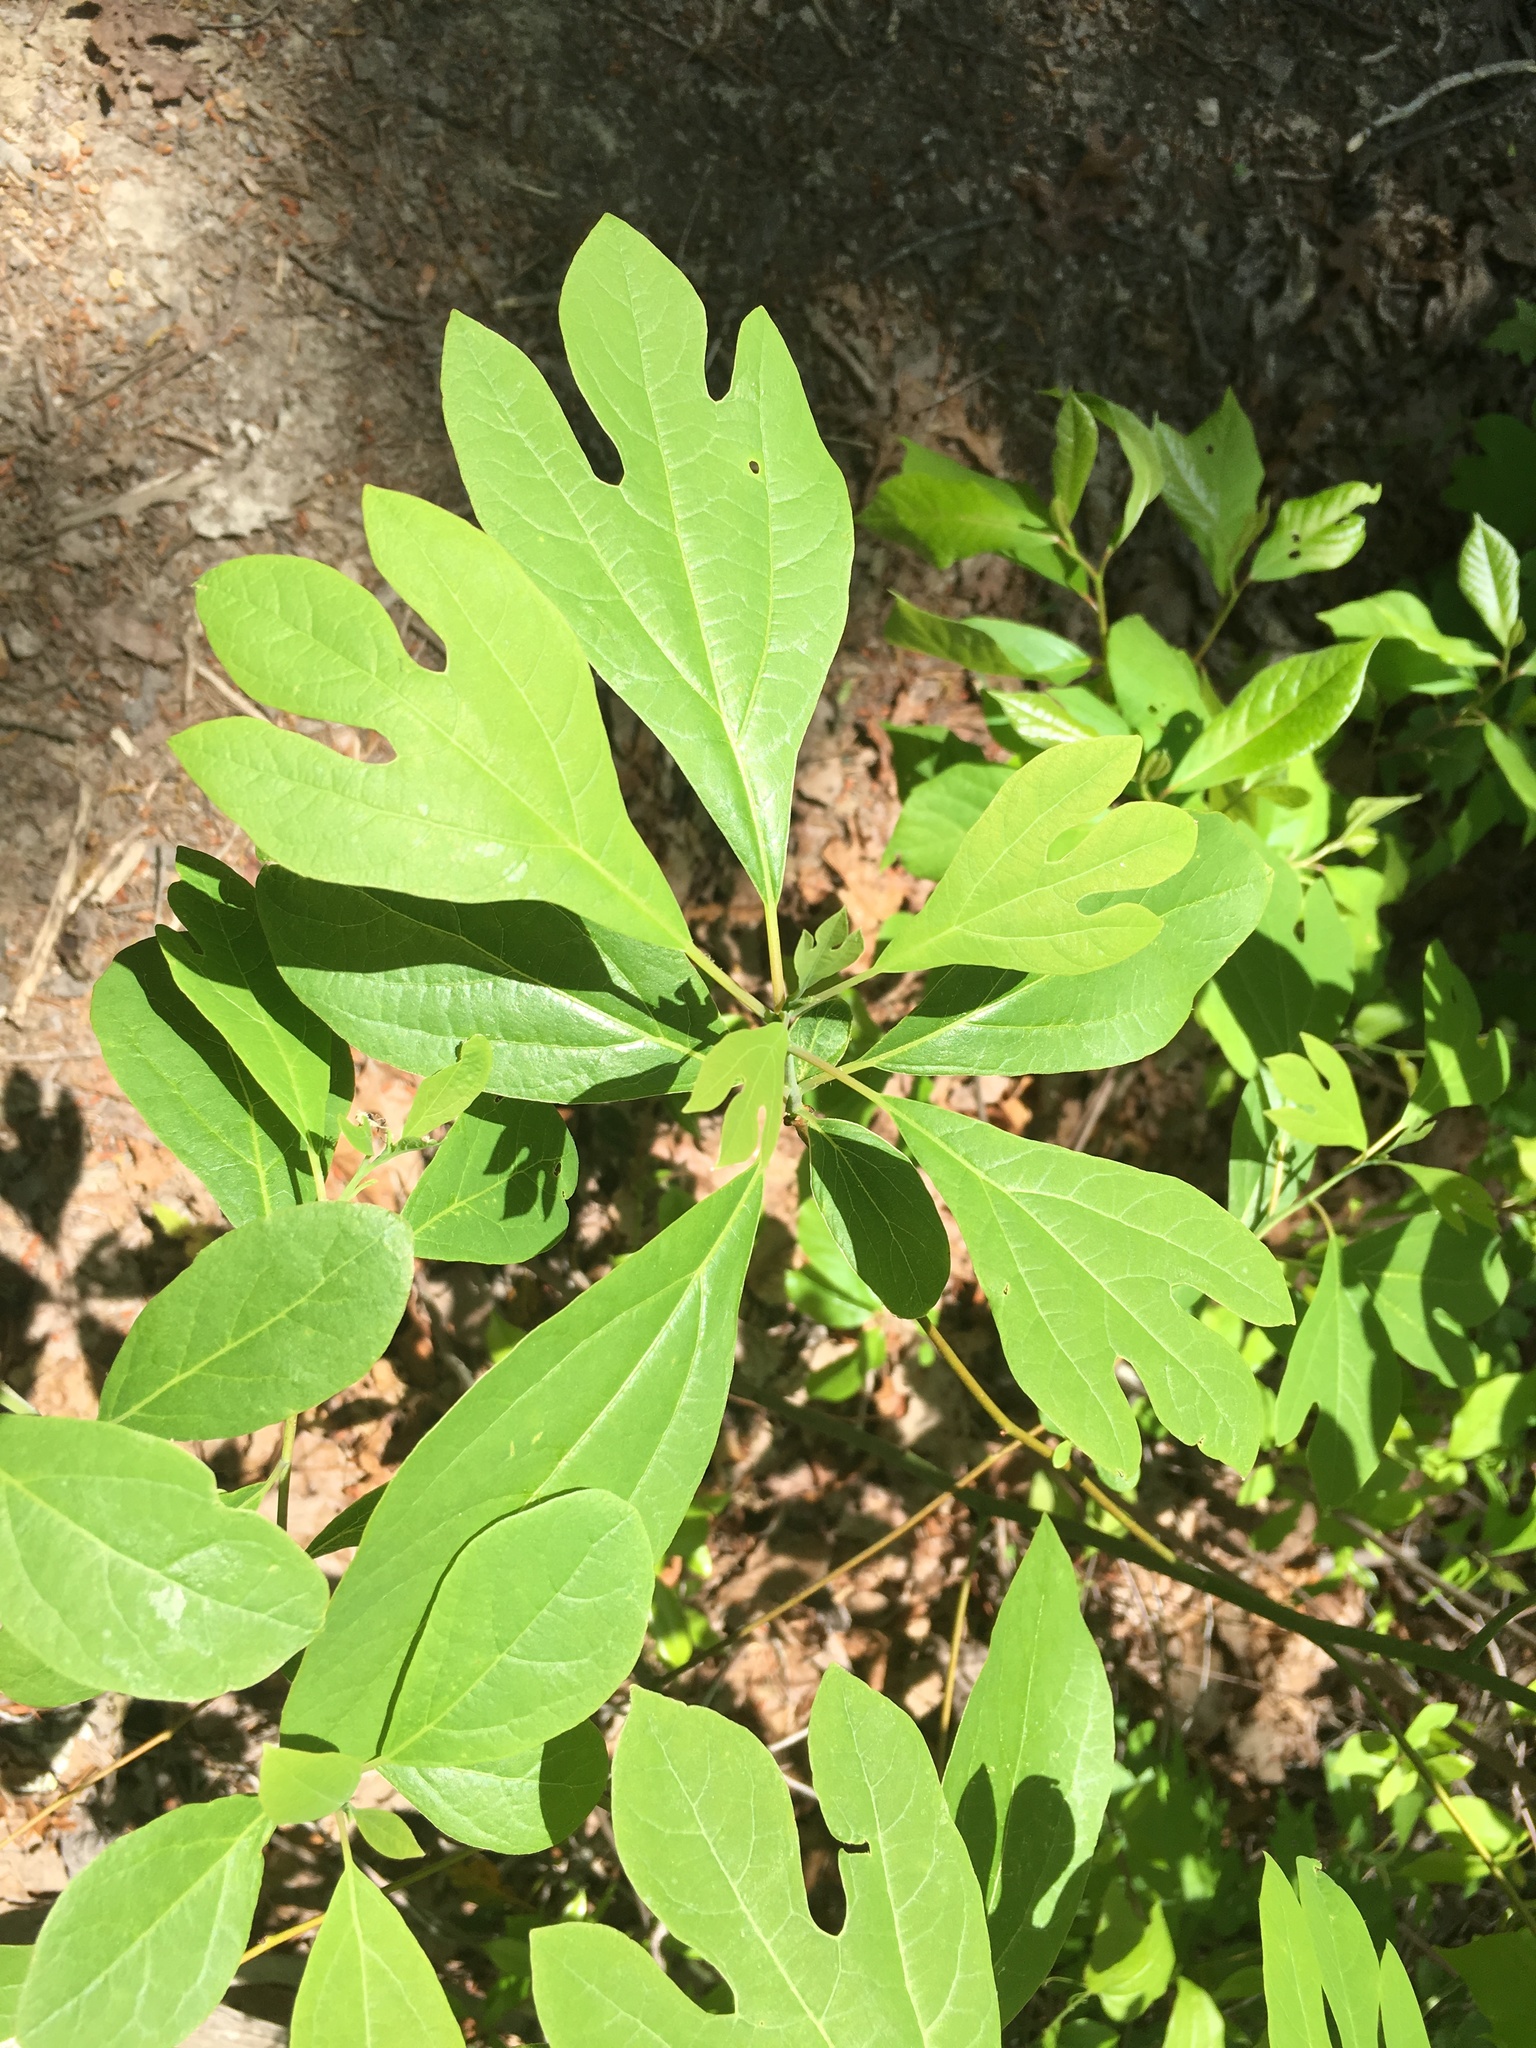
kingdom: Plantae
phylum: Tracheophyta
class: Magnoliopsida
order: Laurales
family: Lauraceae
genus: Sassafras
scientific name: Sassafras albidum
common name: Sassafras
